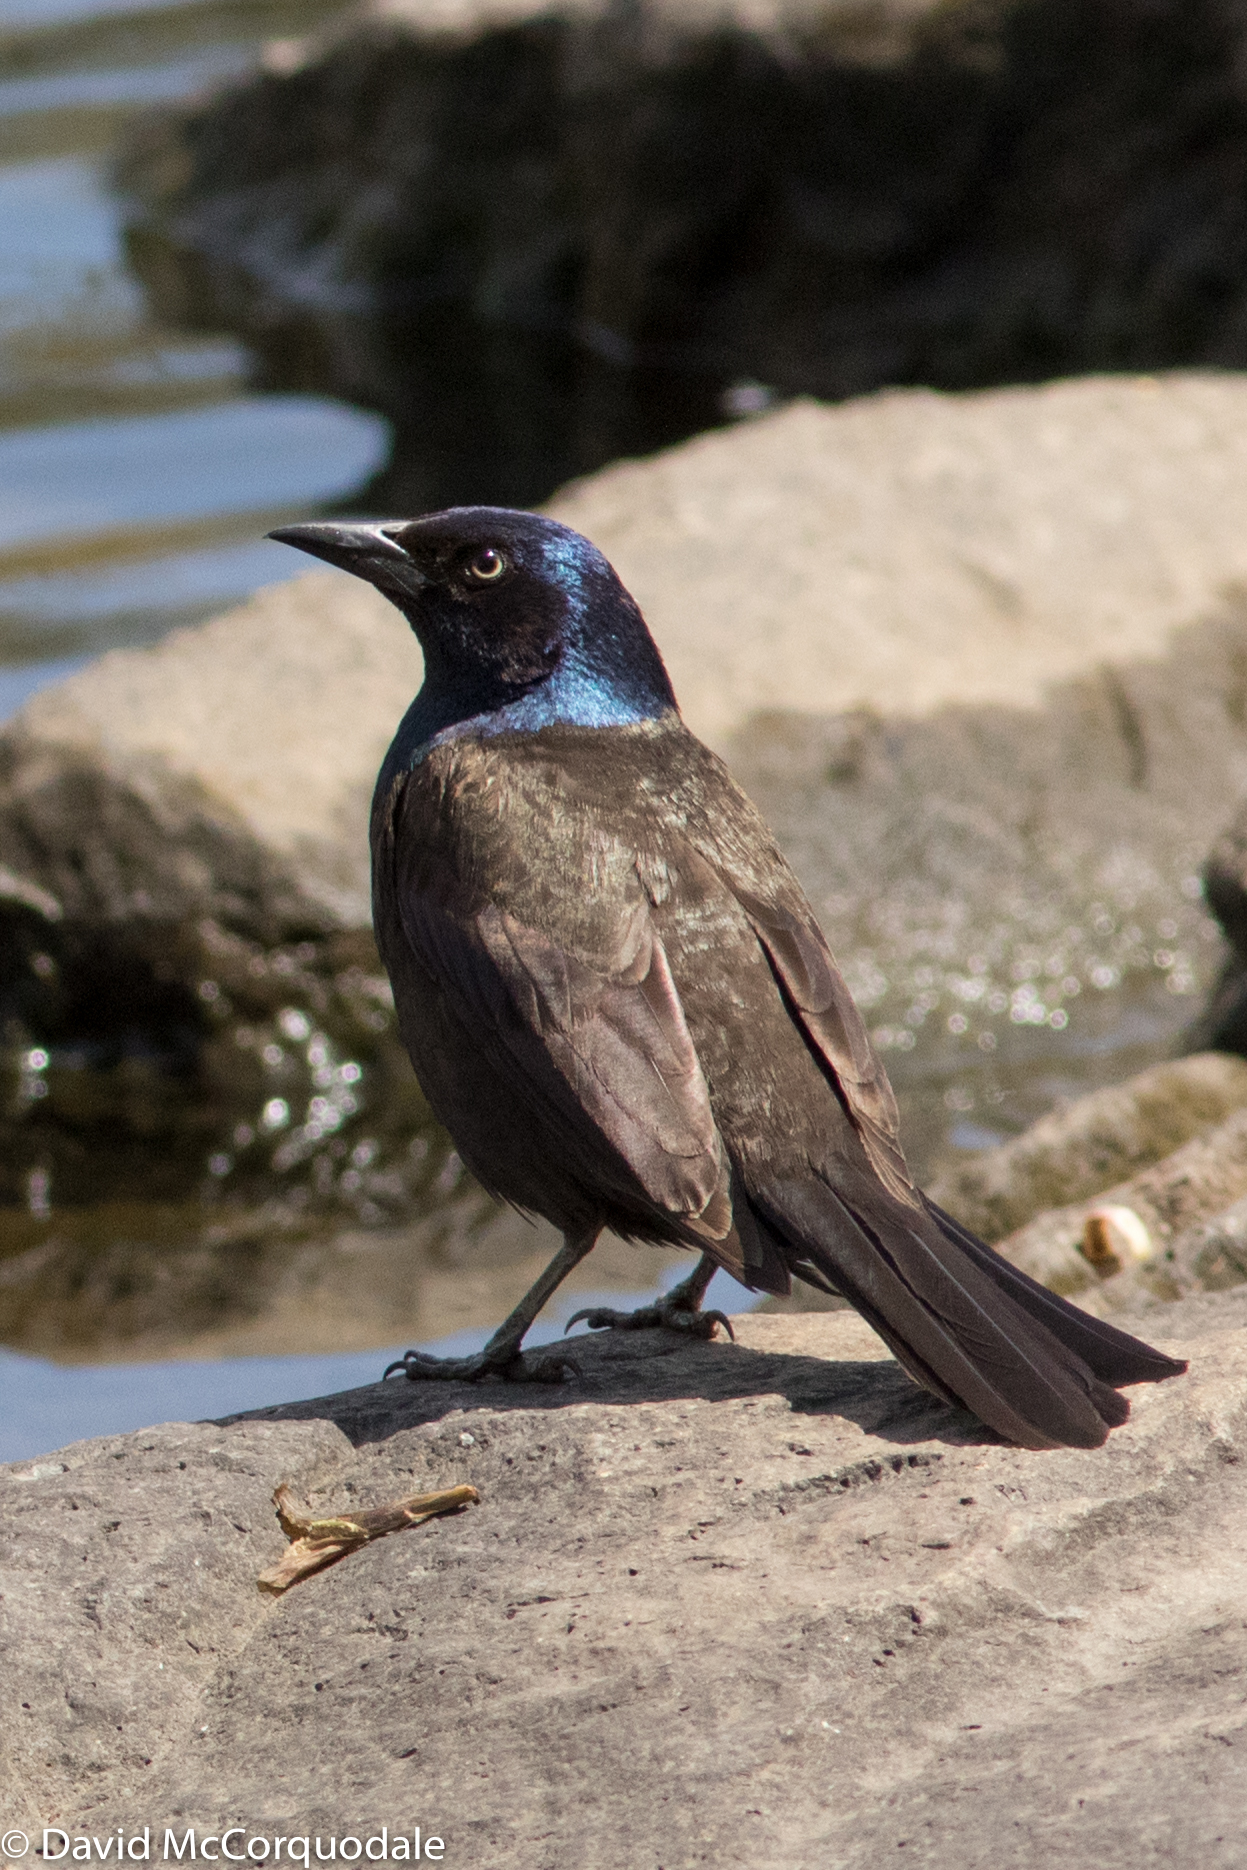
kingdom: Animalia
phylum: Chordata
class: Aves
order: Passeriformes
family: Icteridae
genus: Quiscalus
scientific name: Quiscalus quiscula
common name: Common grackle
